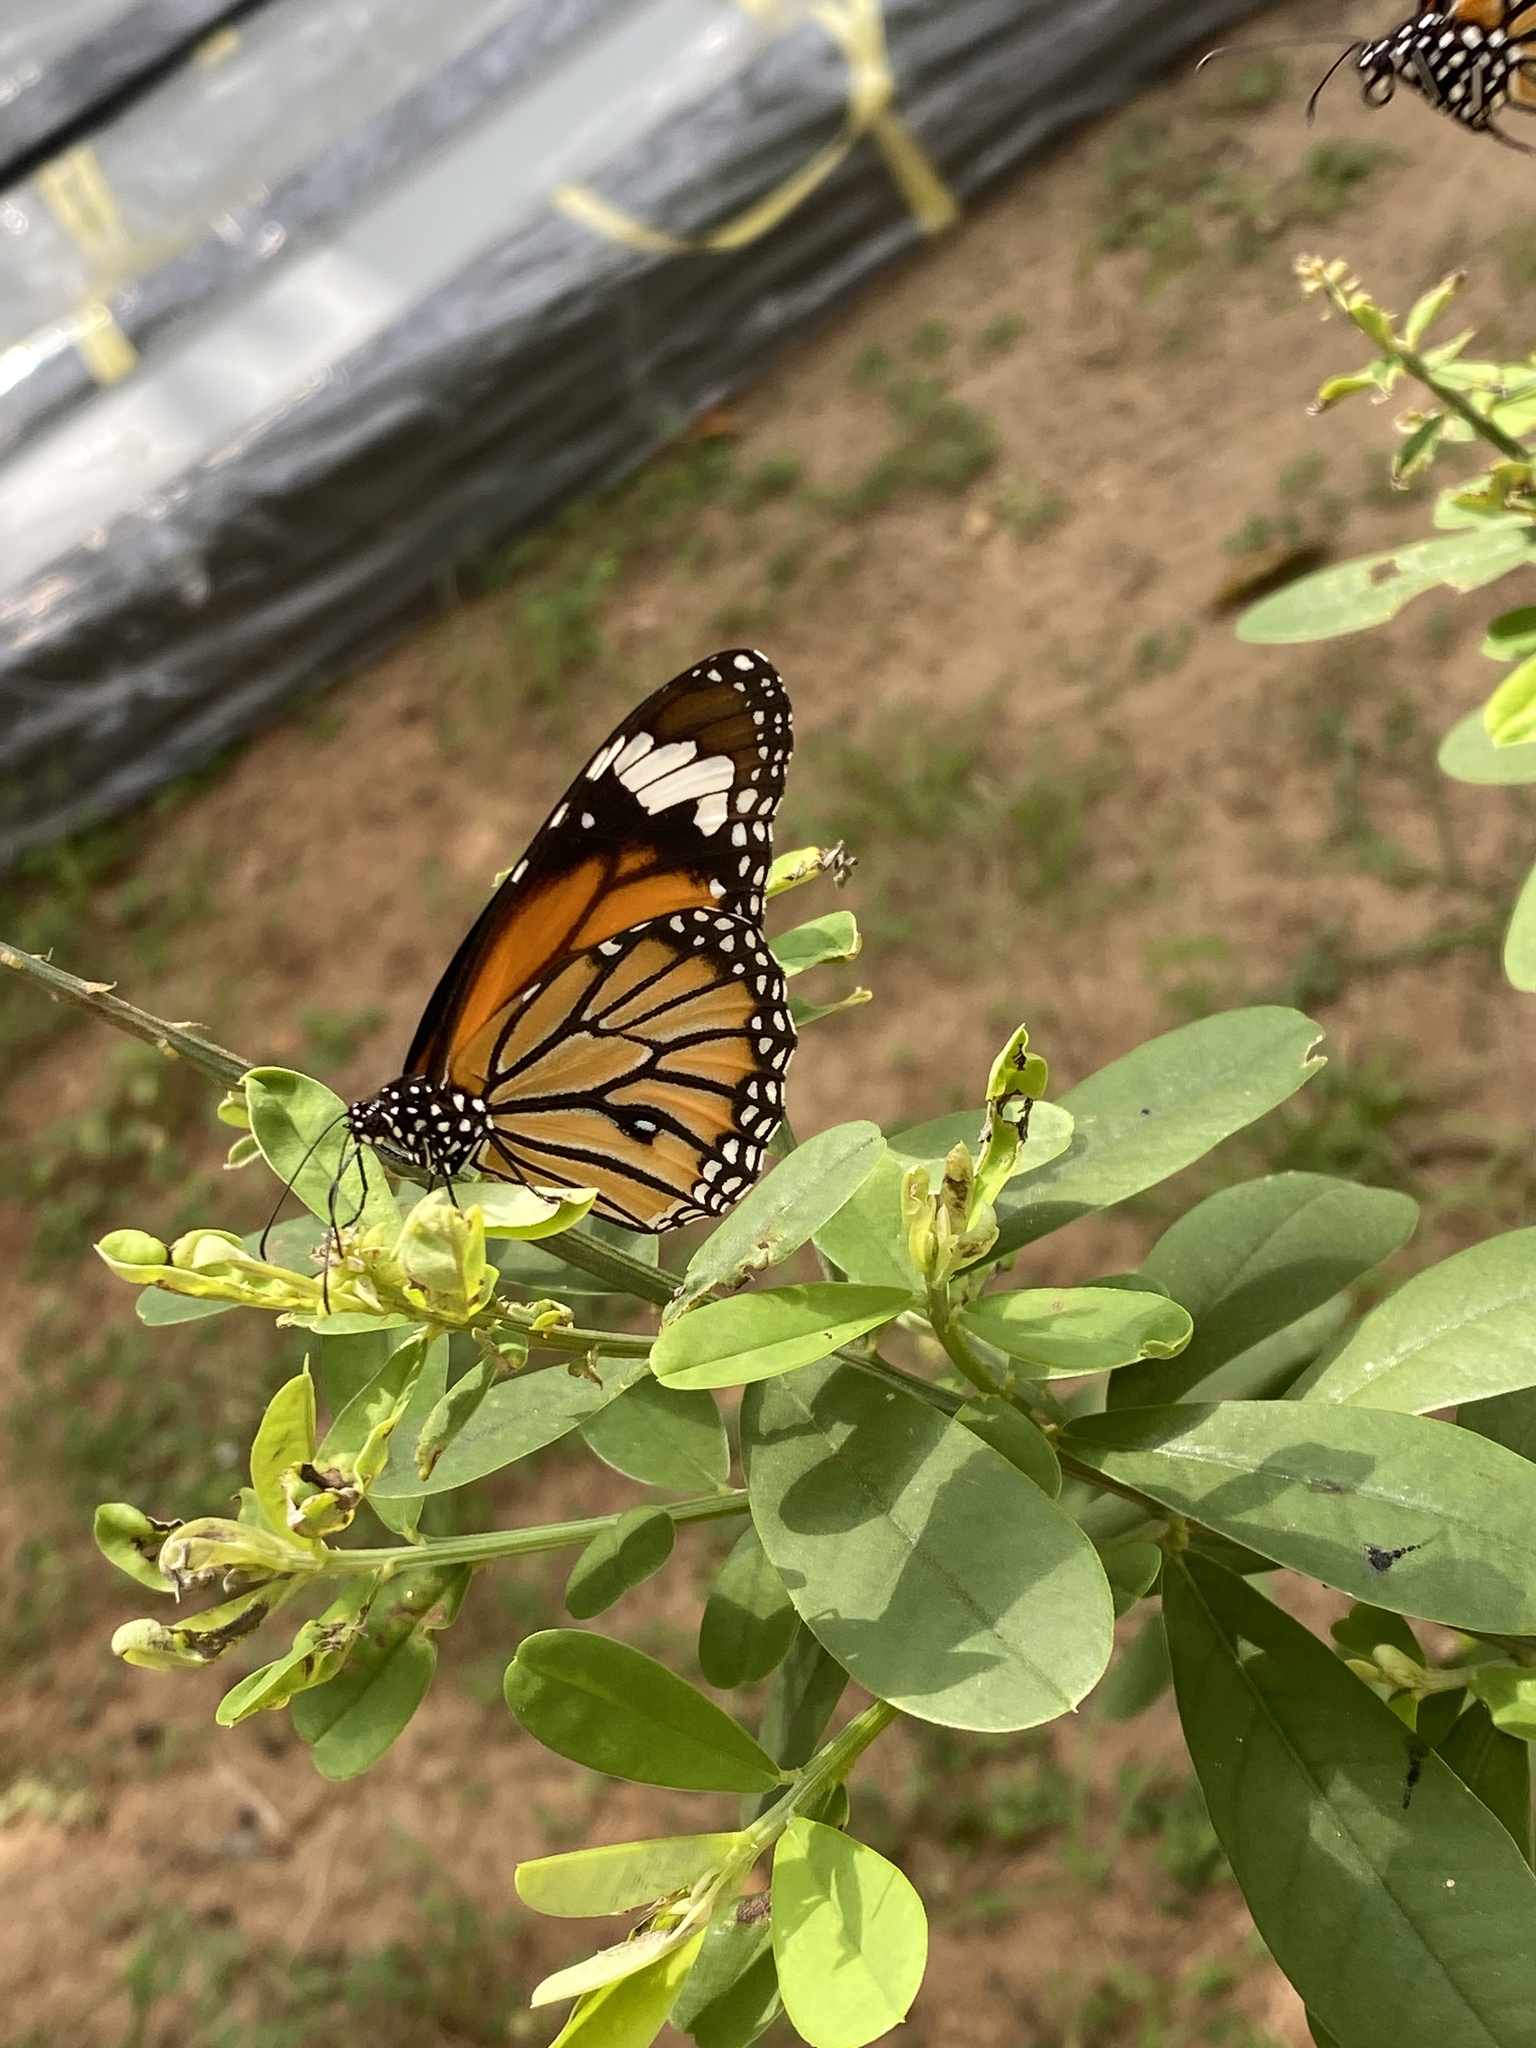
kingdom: Animalia
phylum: Arthropoda
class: Insecta
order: Lepidoptera
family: Nymphalidae
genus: Danaus
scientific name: Danaus genutia
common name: Common tiger butterfly
